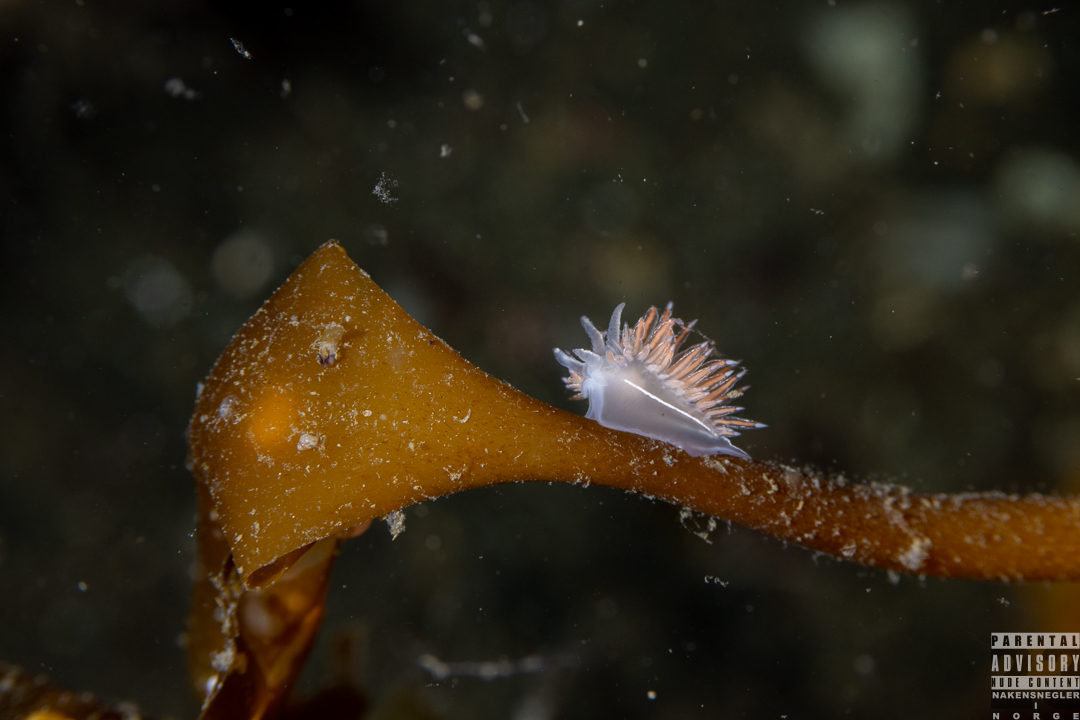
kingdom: Animalia
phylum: Mollusca
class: Gastropoda
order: Nudibranchia
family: Coryphellidae
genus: Coryphella
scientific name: Coryphella chriskaugei
